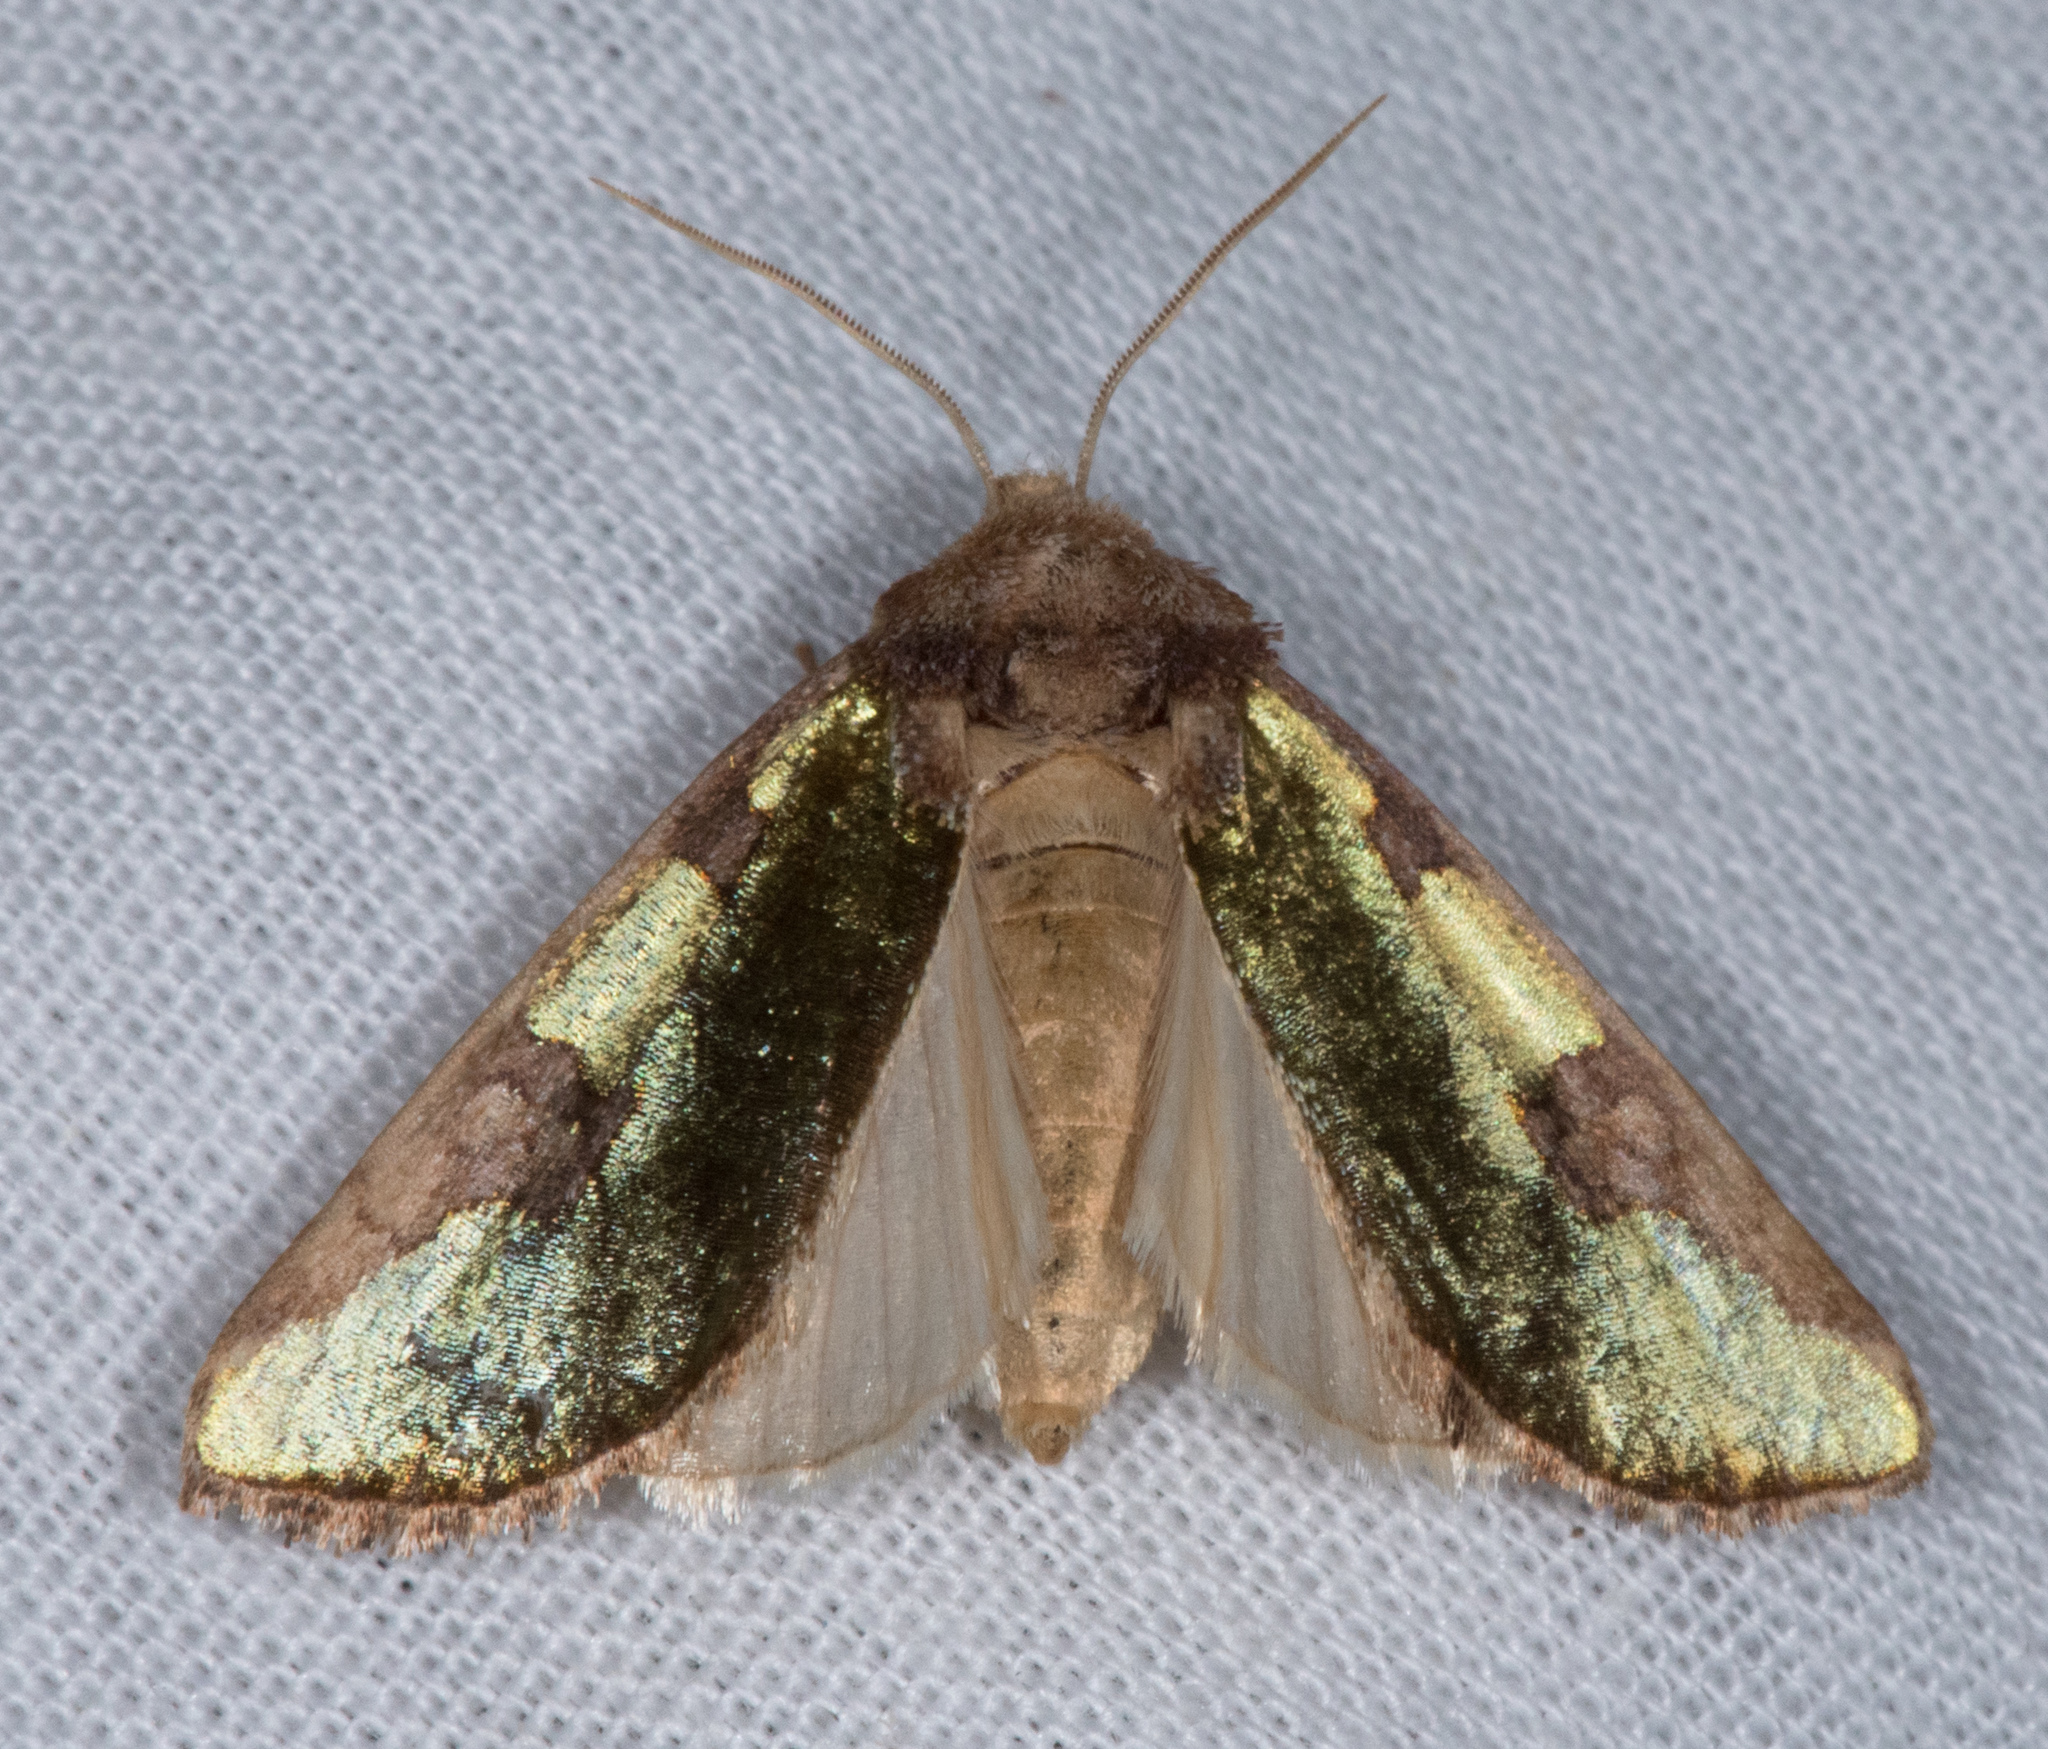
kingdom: Animalia
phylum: Arthropoda
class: Insecta
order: Lepidoptera
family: Noctuidae
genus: Chalcopasta
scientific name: Chalcopasta territans
